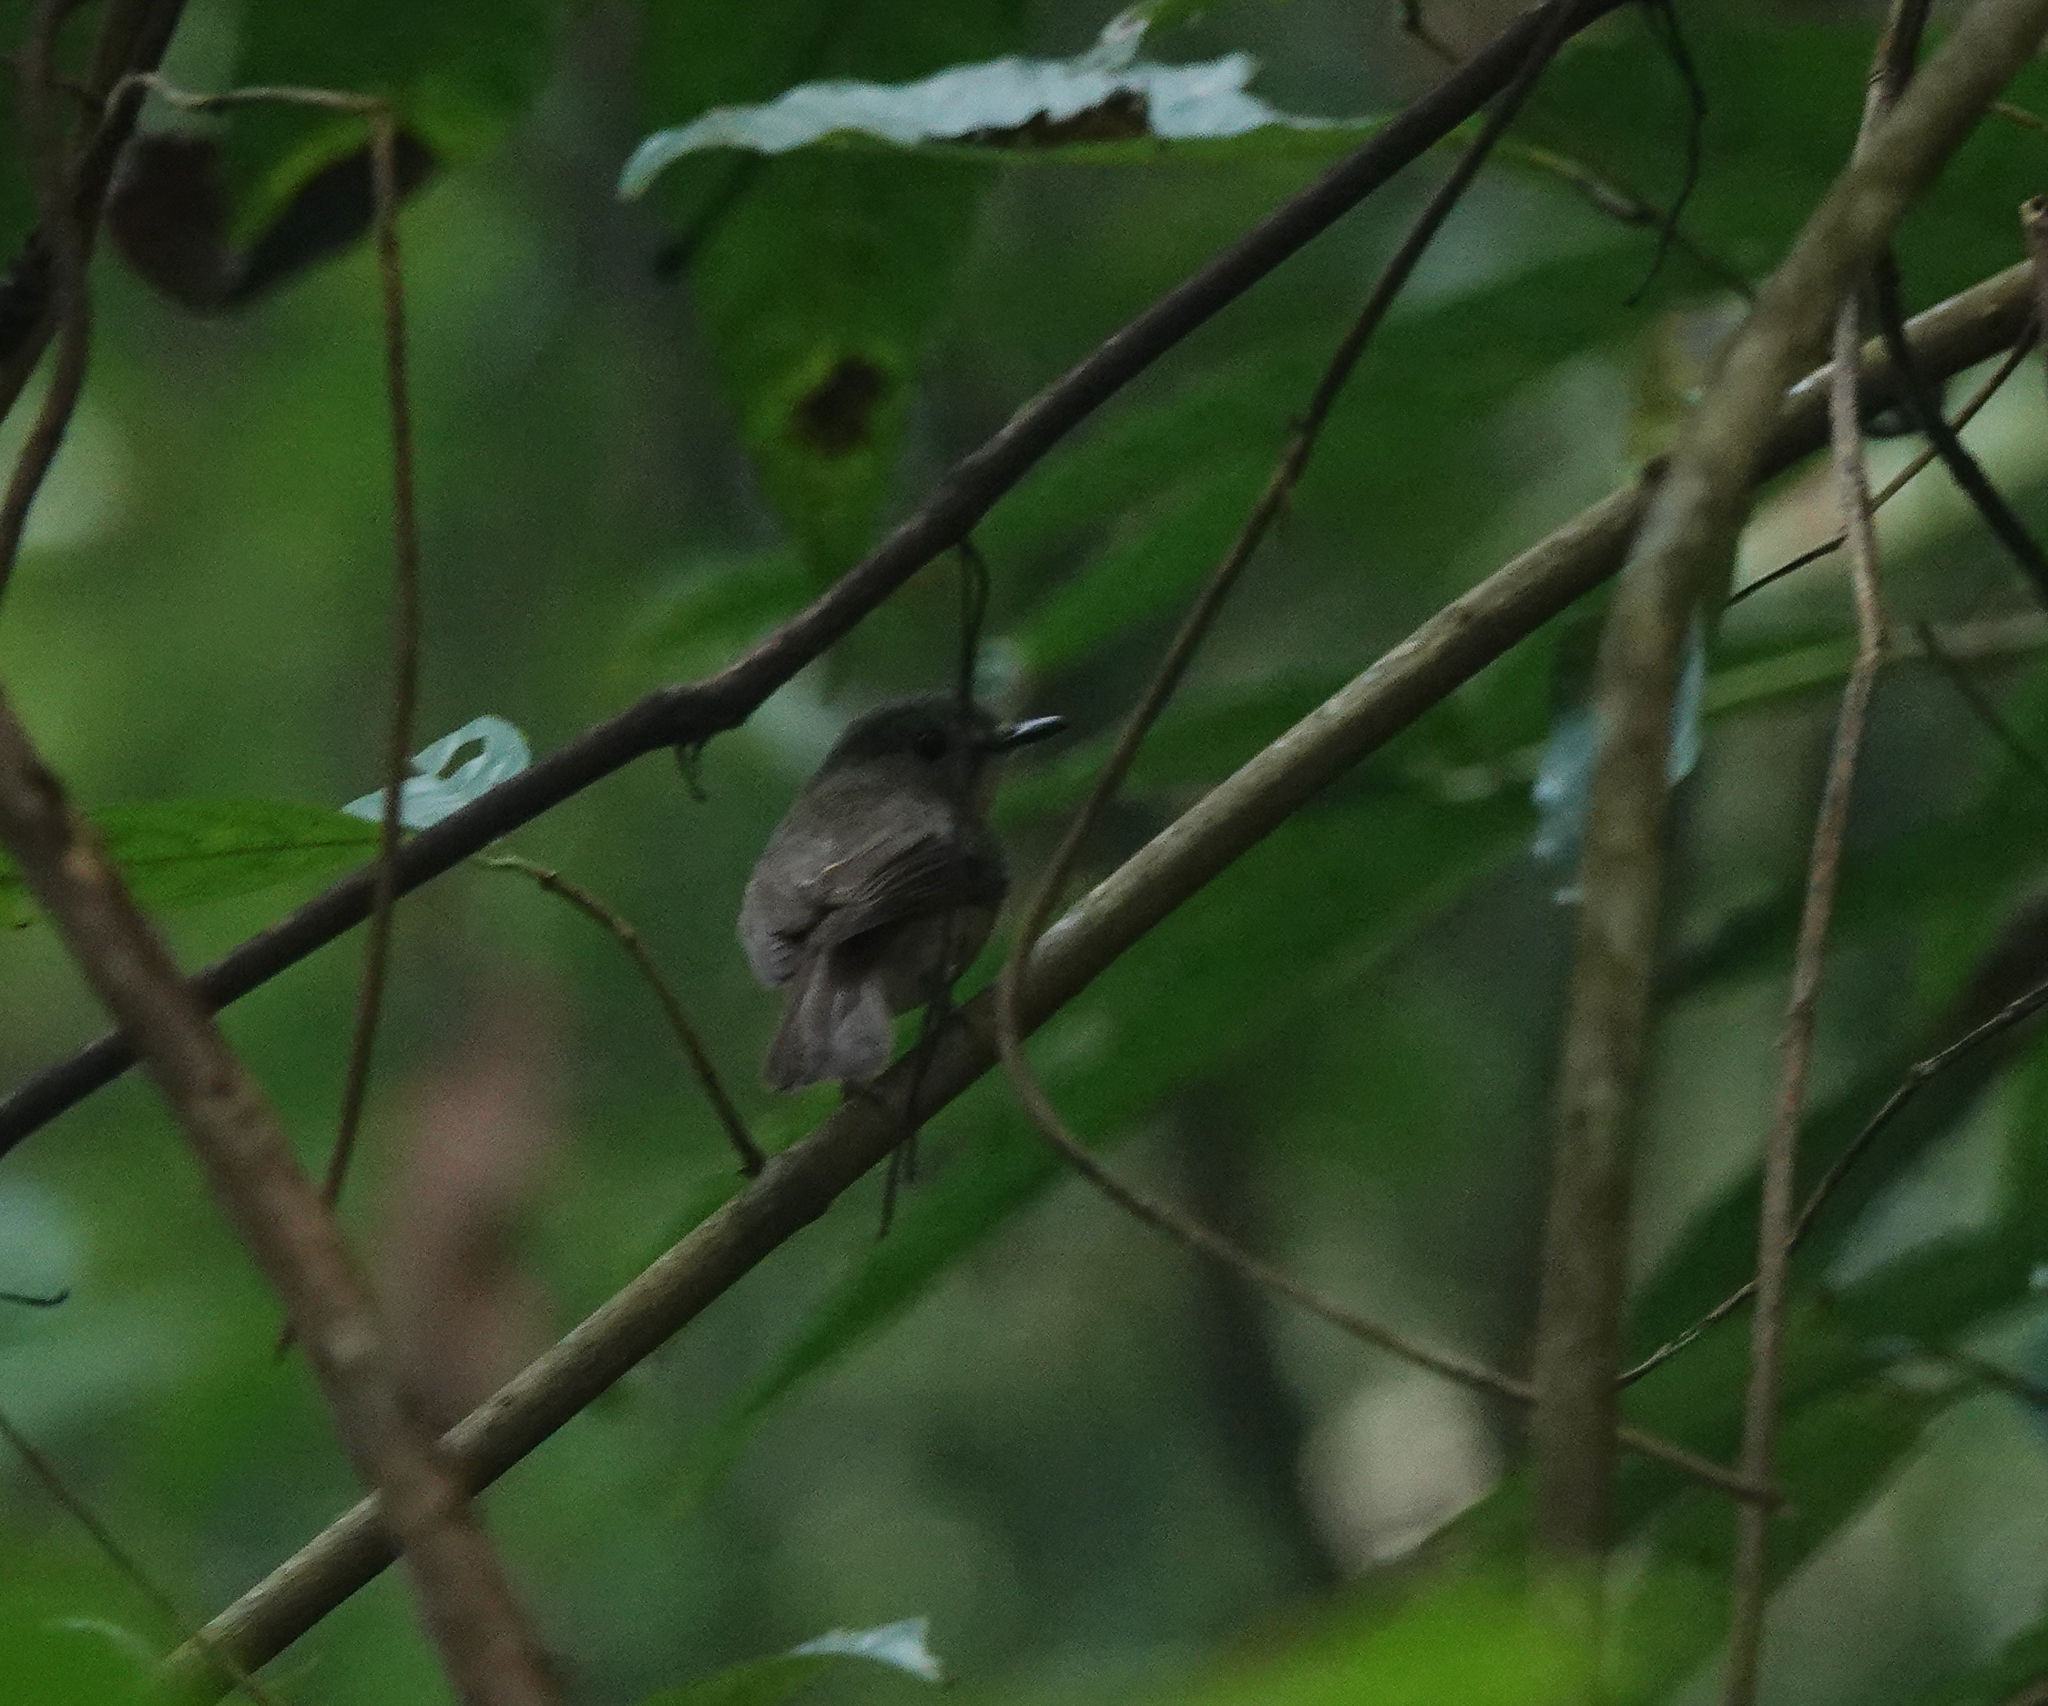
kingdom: Animalia
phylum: Chordata
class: Aves
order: Passeriformes
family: Muscicapidae
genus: Cyornis
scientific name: Cyornis poliogenys
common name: Pale-chinned blue flycatcher
